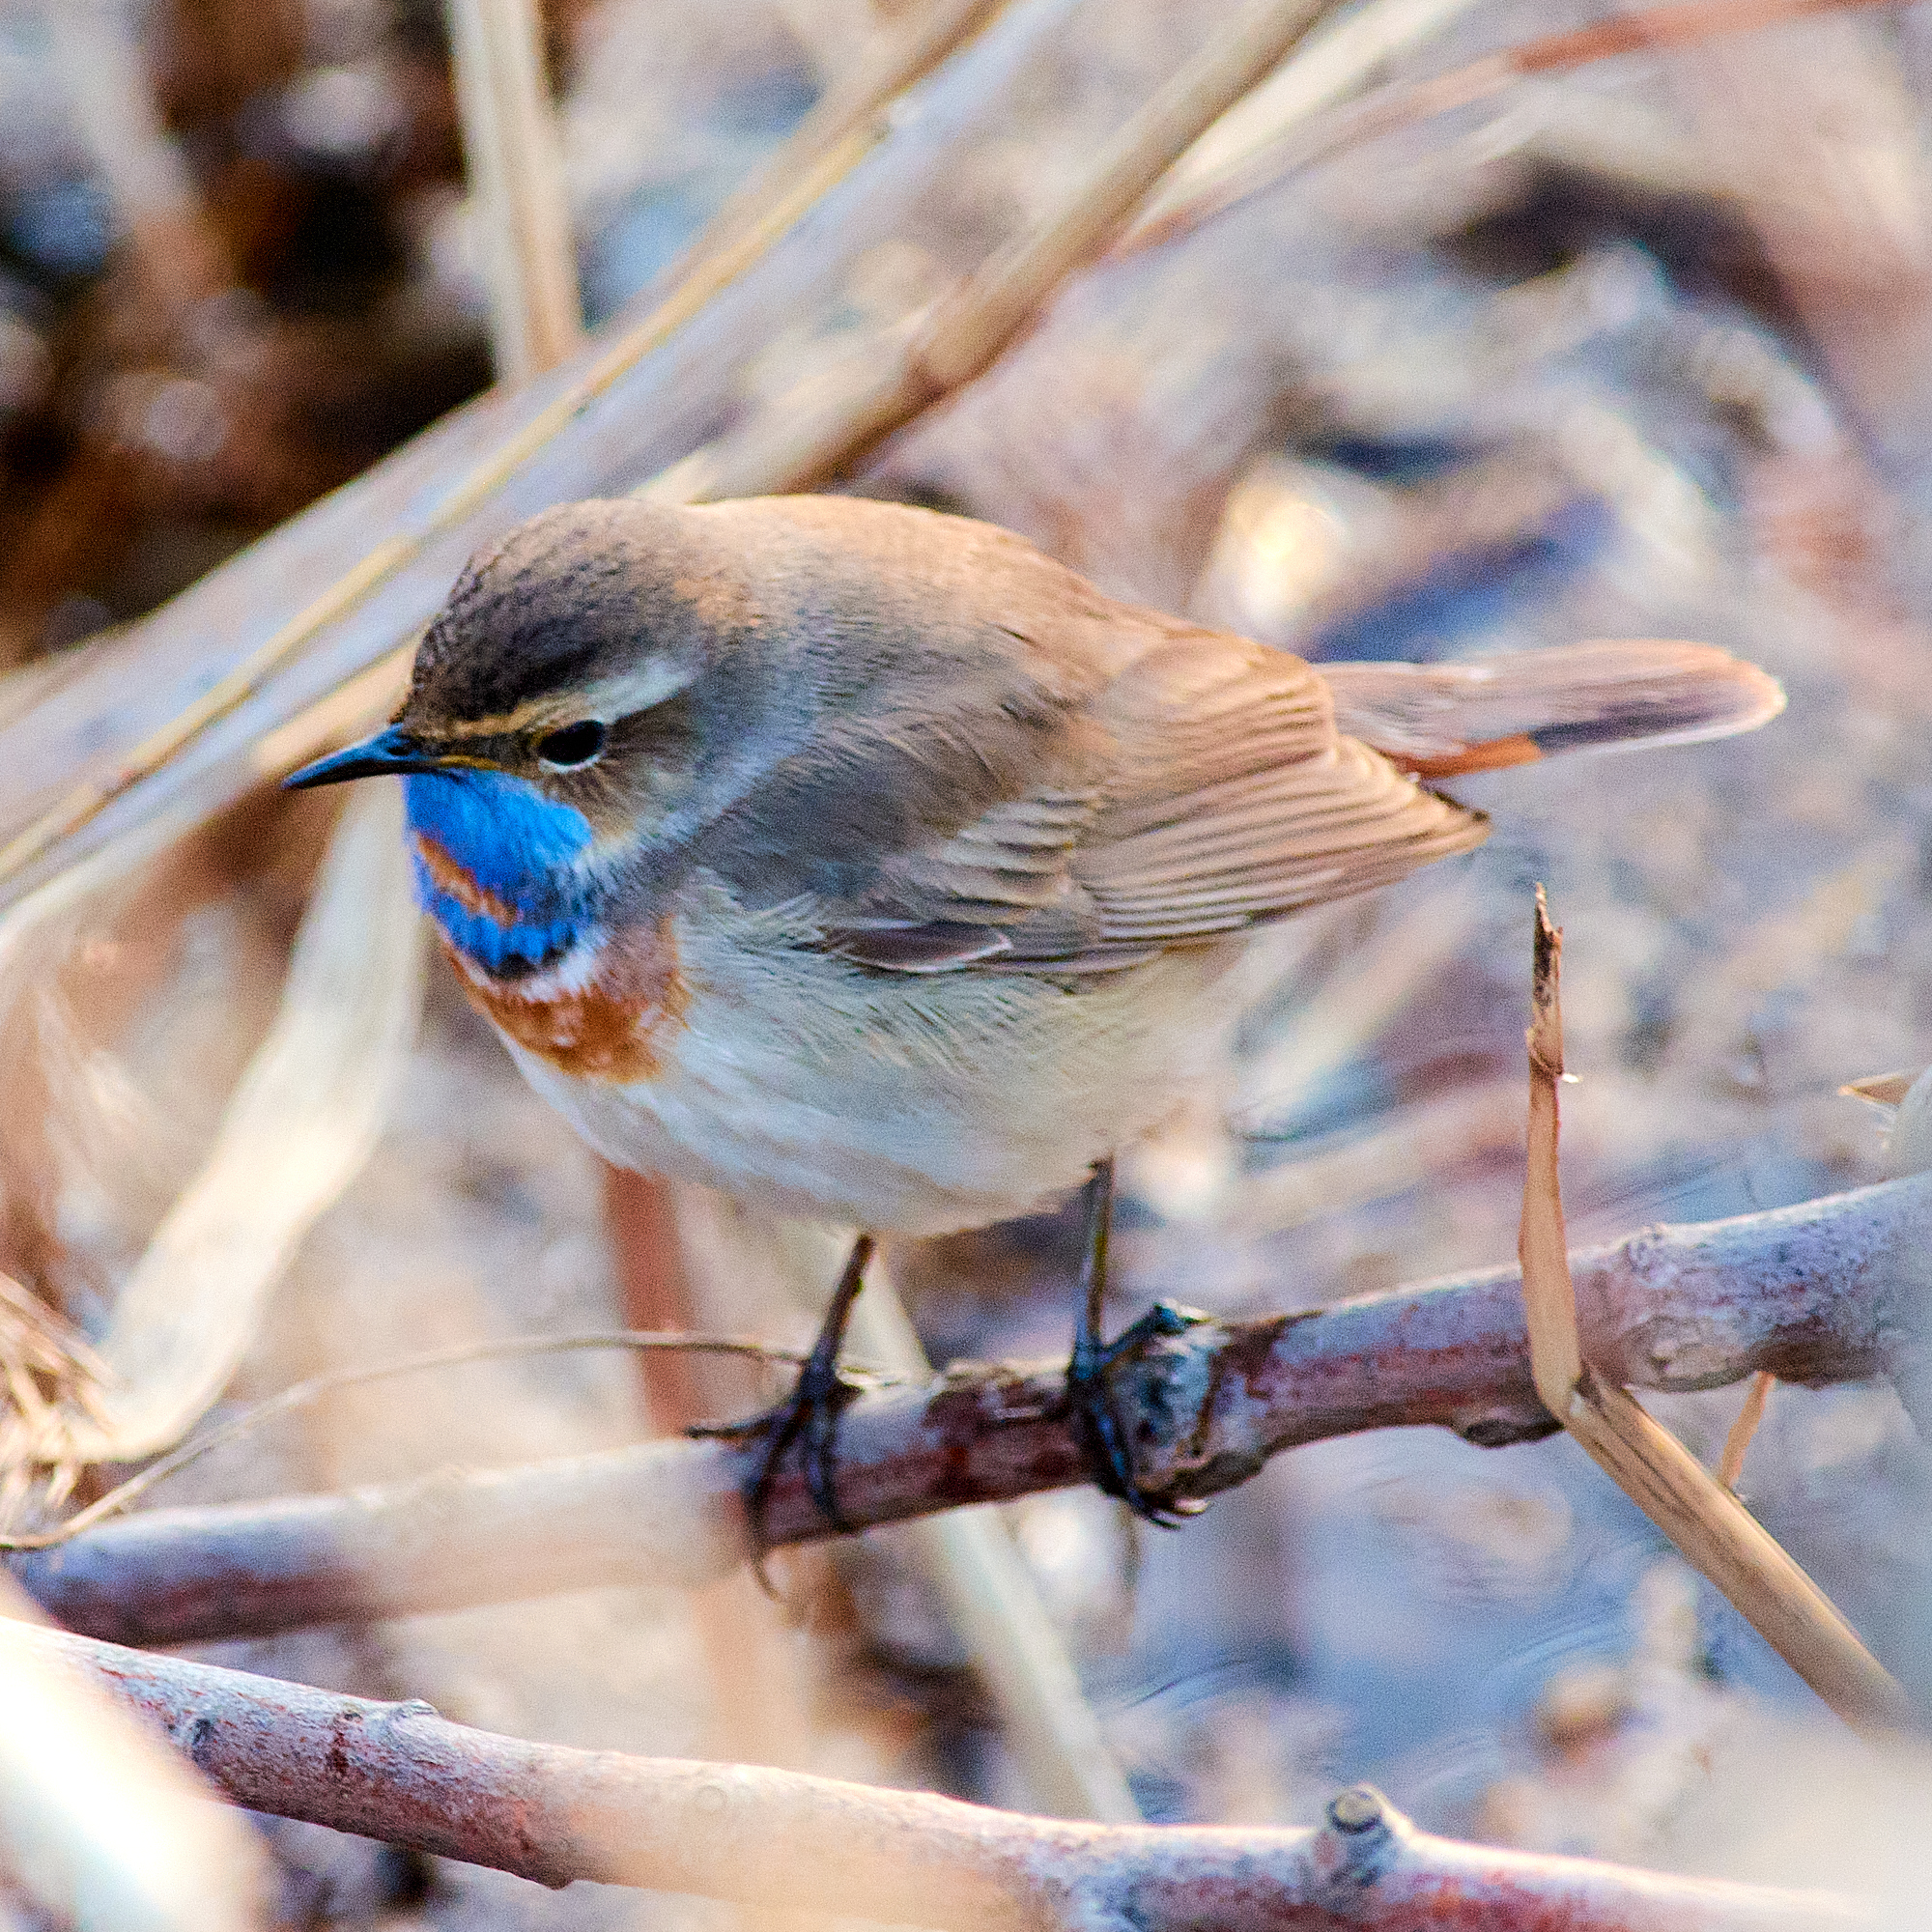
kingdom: Animalia
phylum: Chordata
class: Aves
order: Passeriformes
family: Muscicapidae
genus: Luscinia
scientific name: Luscinia svecica
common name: Bluethroat
